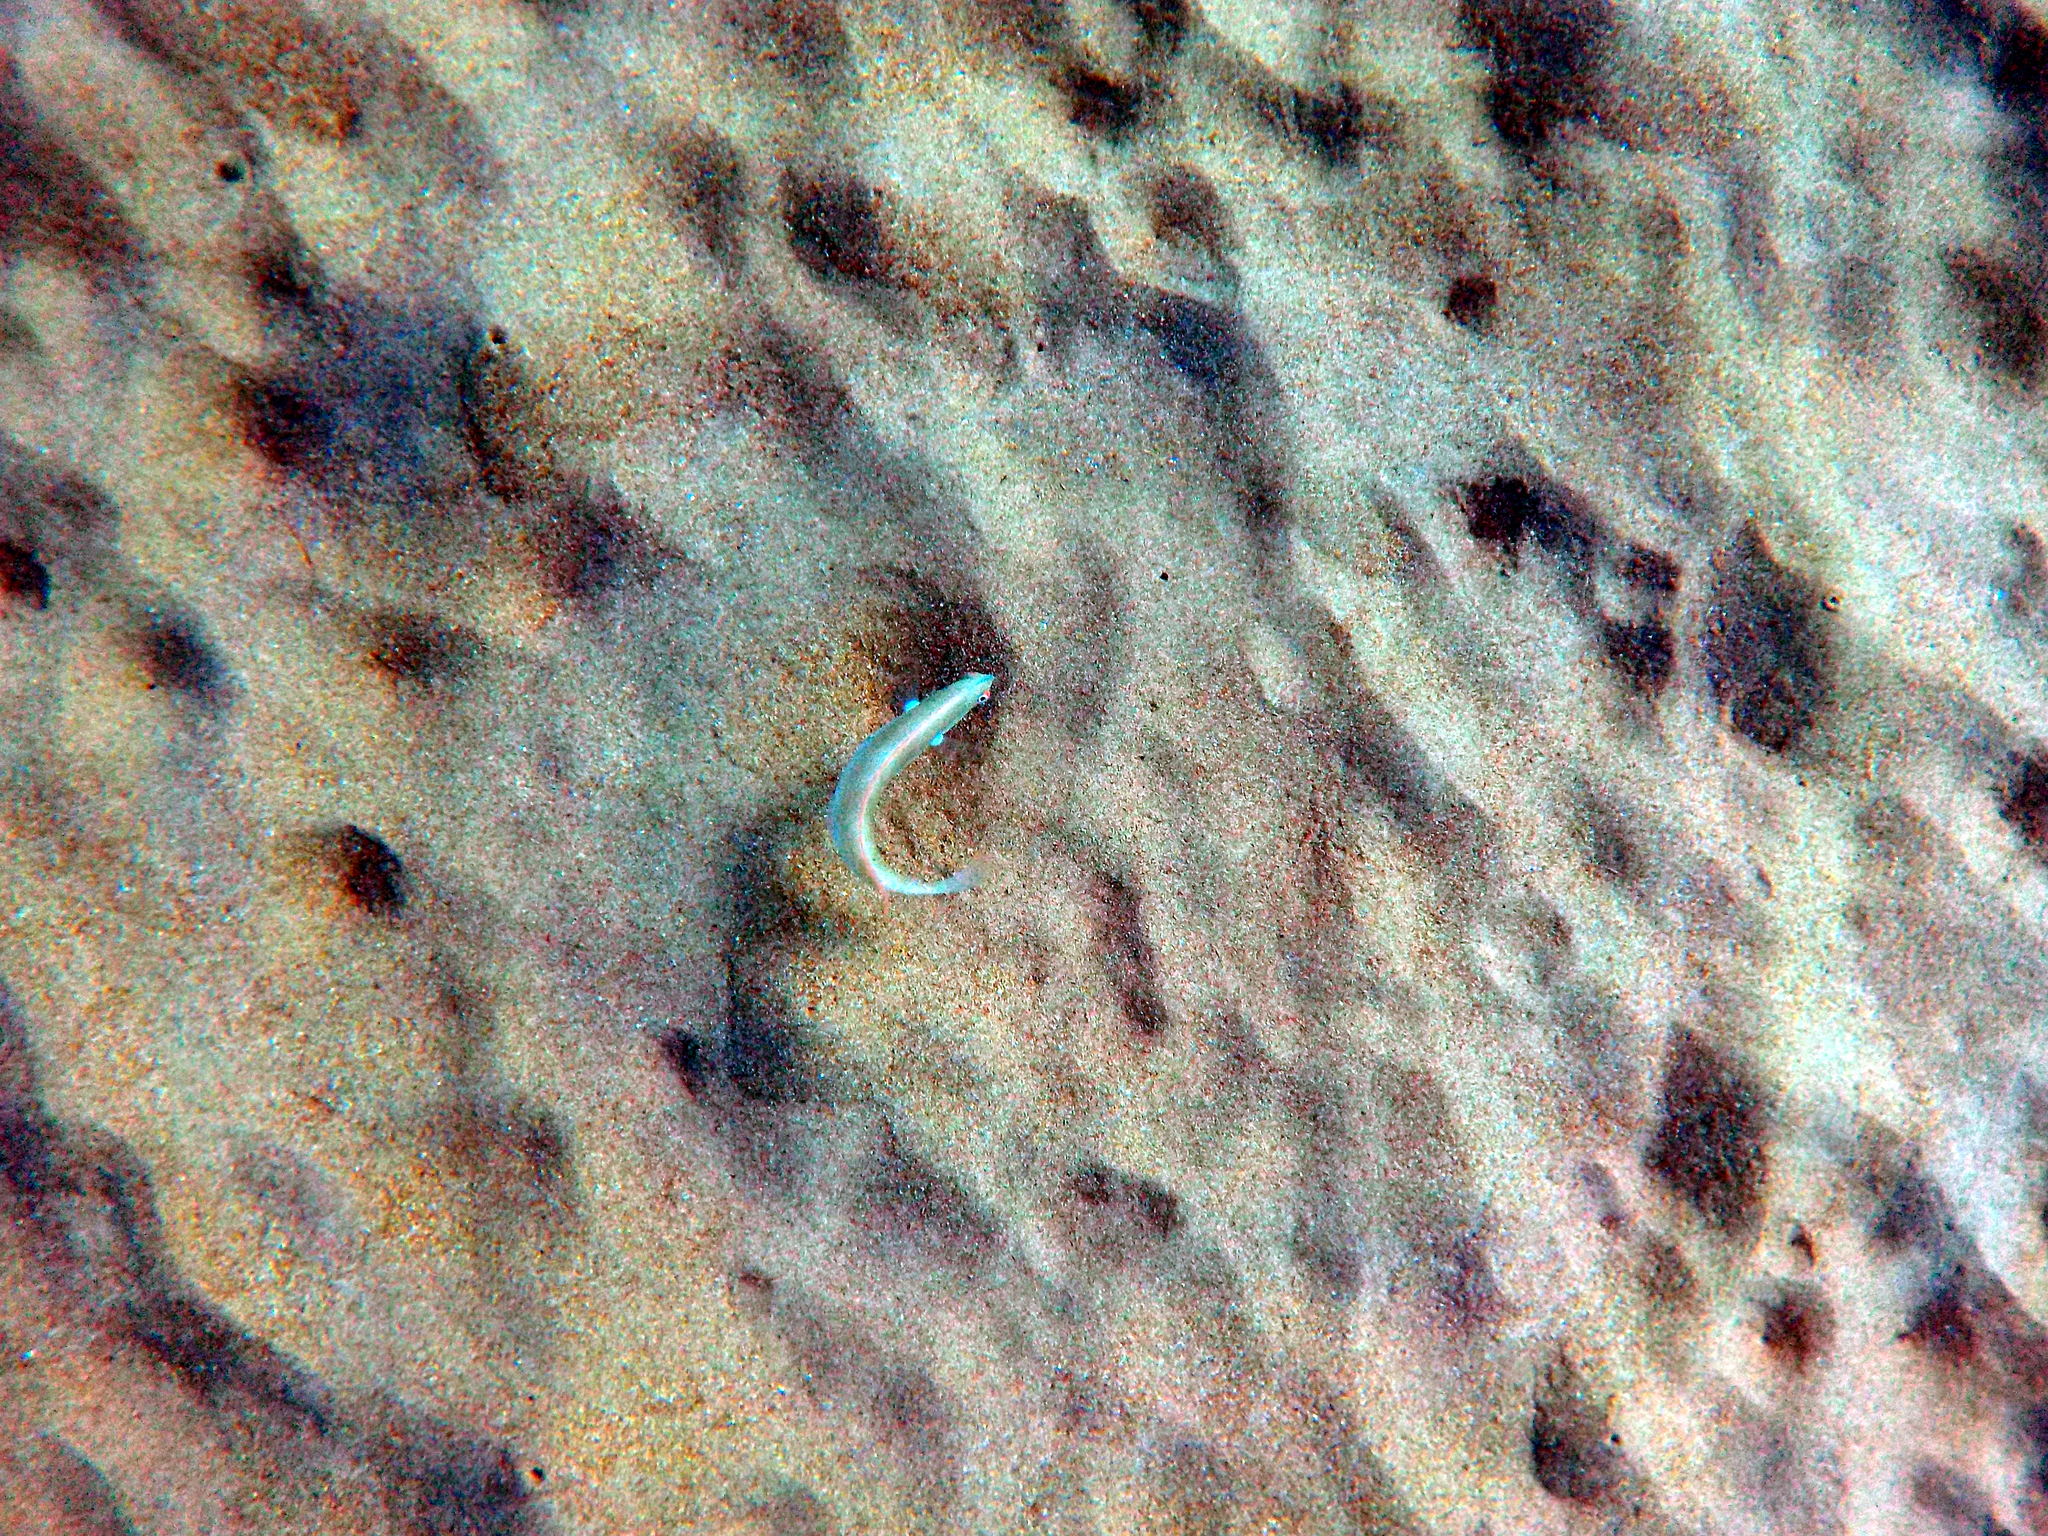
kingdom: Animalia
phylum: Chordata
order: Perciformes
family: Labridae
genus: Xyrichtys
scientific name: Xyrichtys novacula
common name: Pearly razorfish
